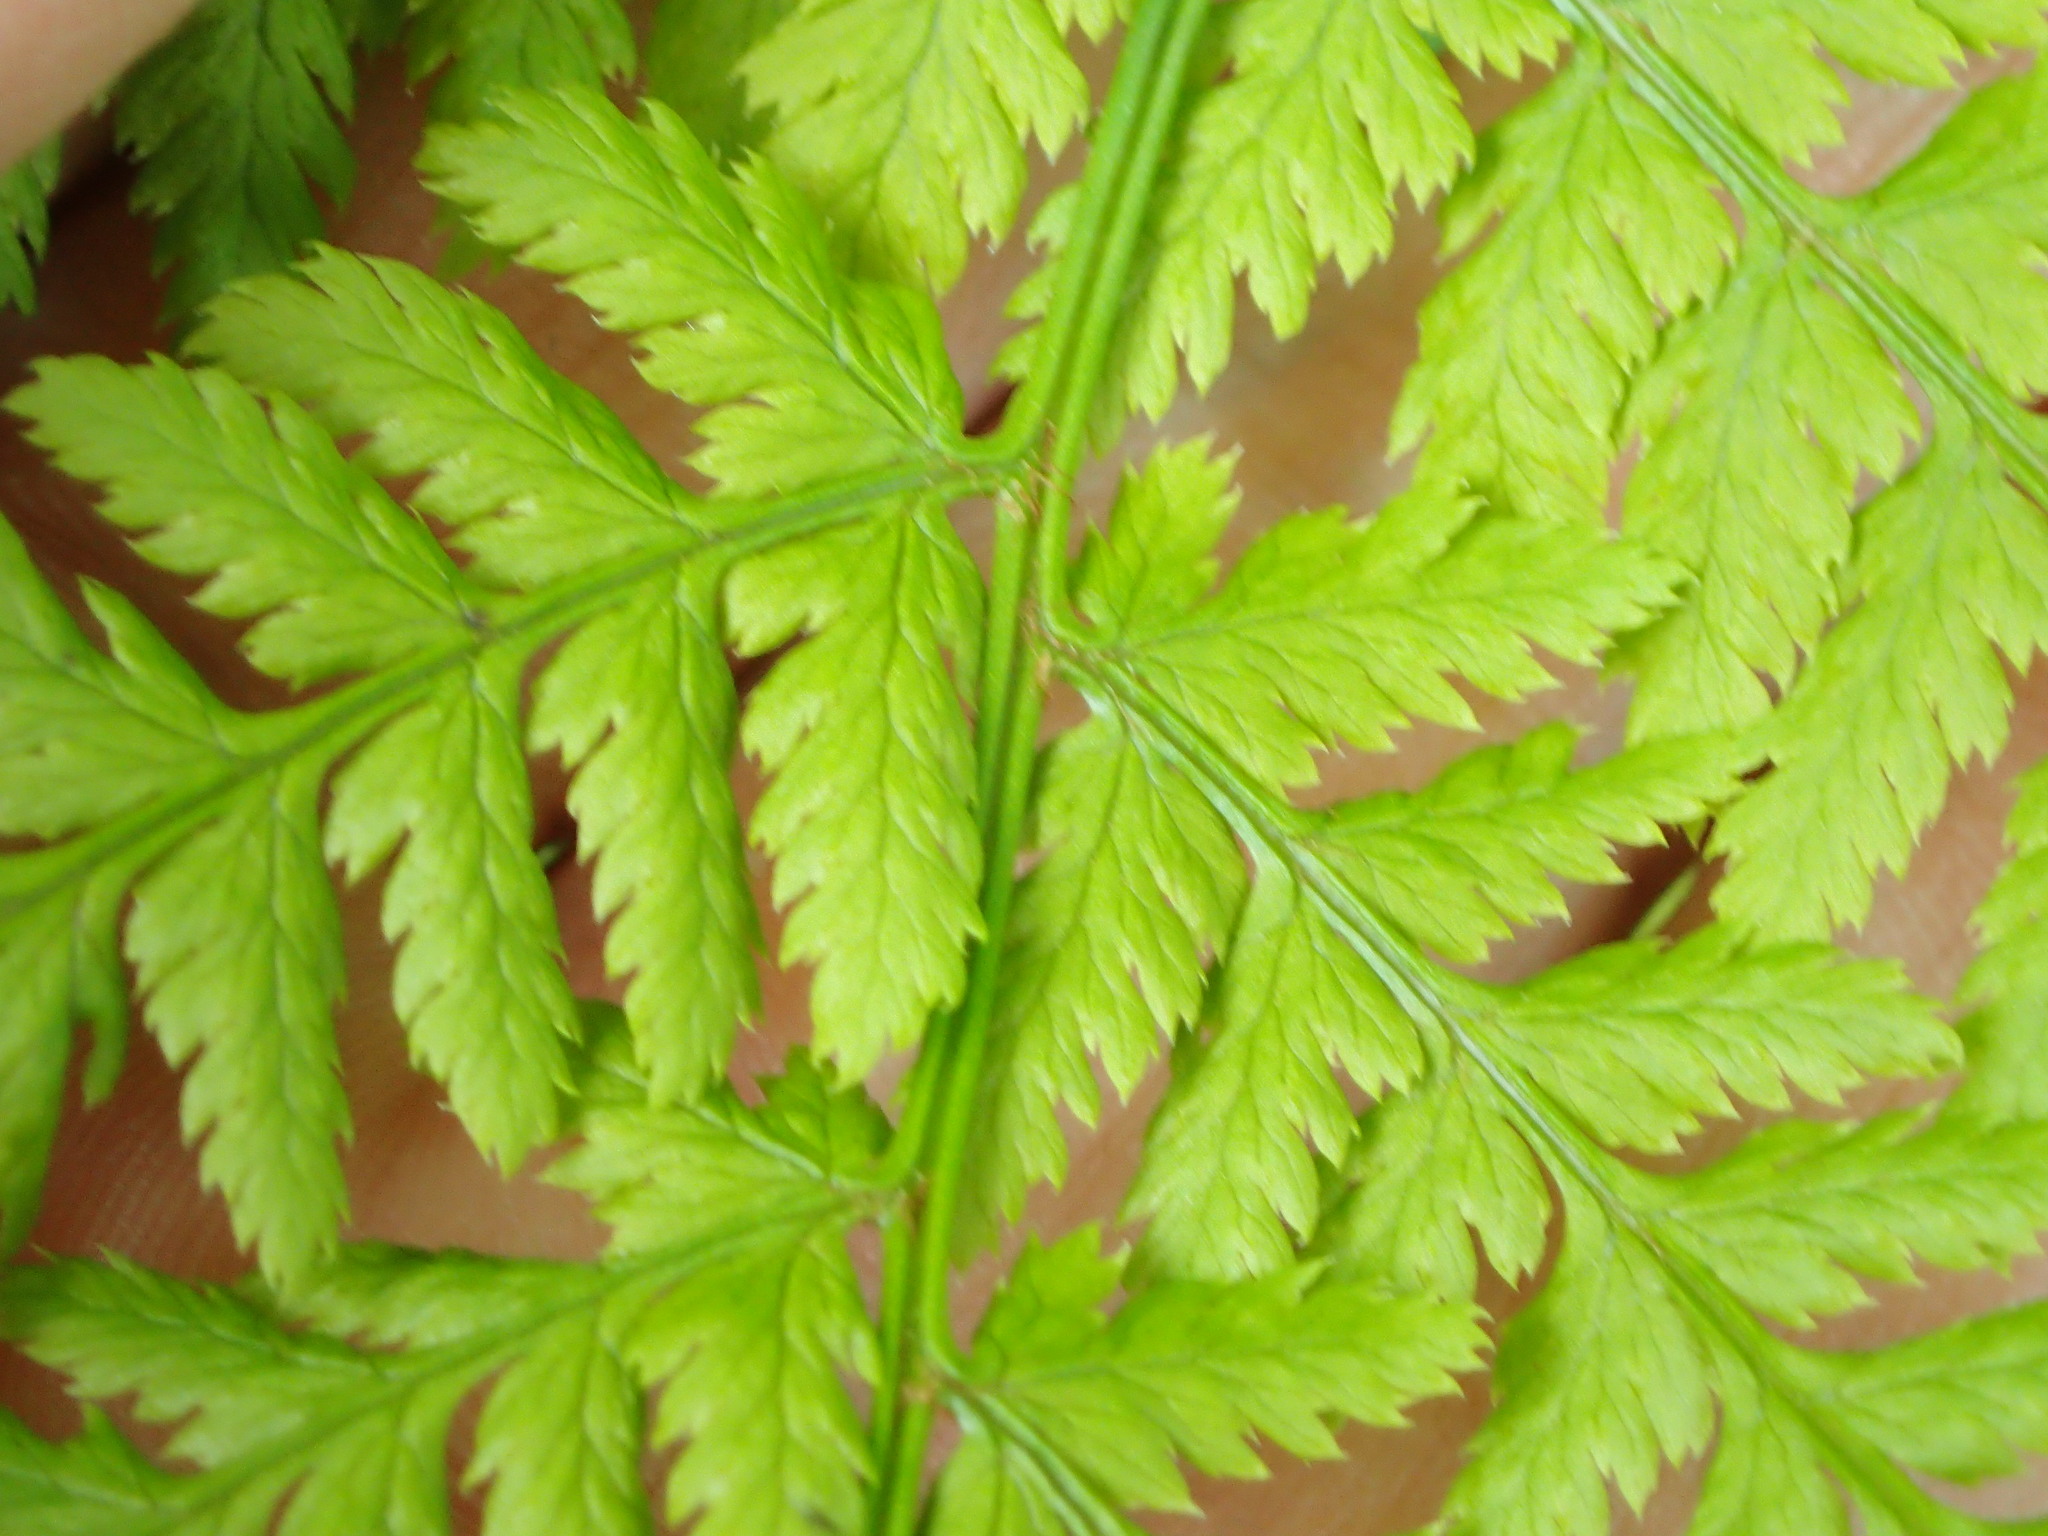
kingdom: Plantae
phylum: Tracheophyta
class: Polypodiopsida
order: Polypodiales
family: Athyriaceae
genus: Athyrium
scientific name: Athyrium filix-femina
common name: Lady fern
